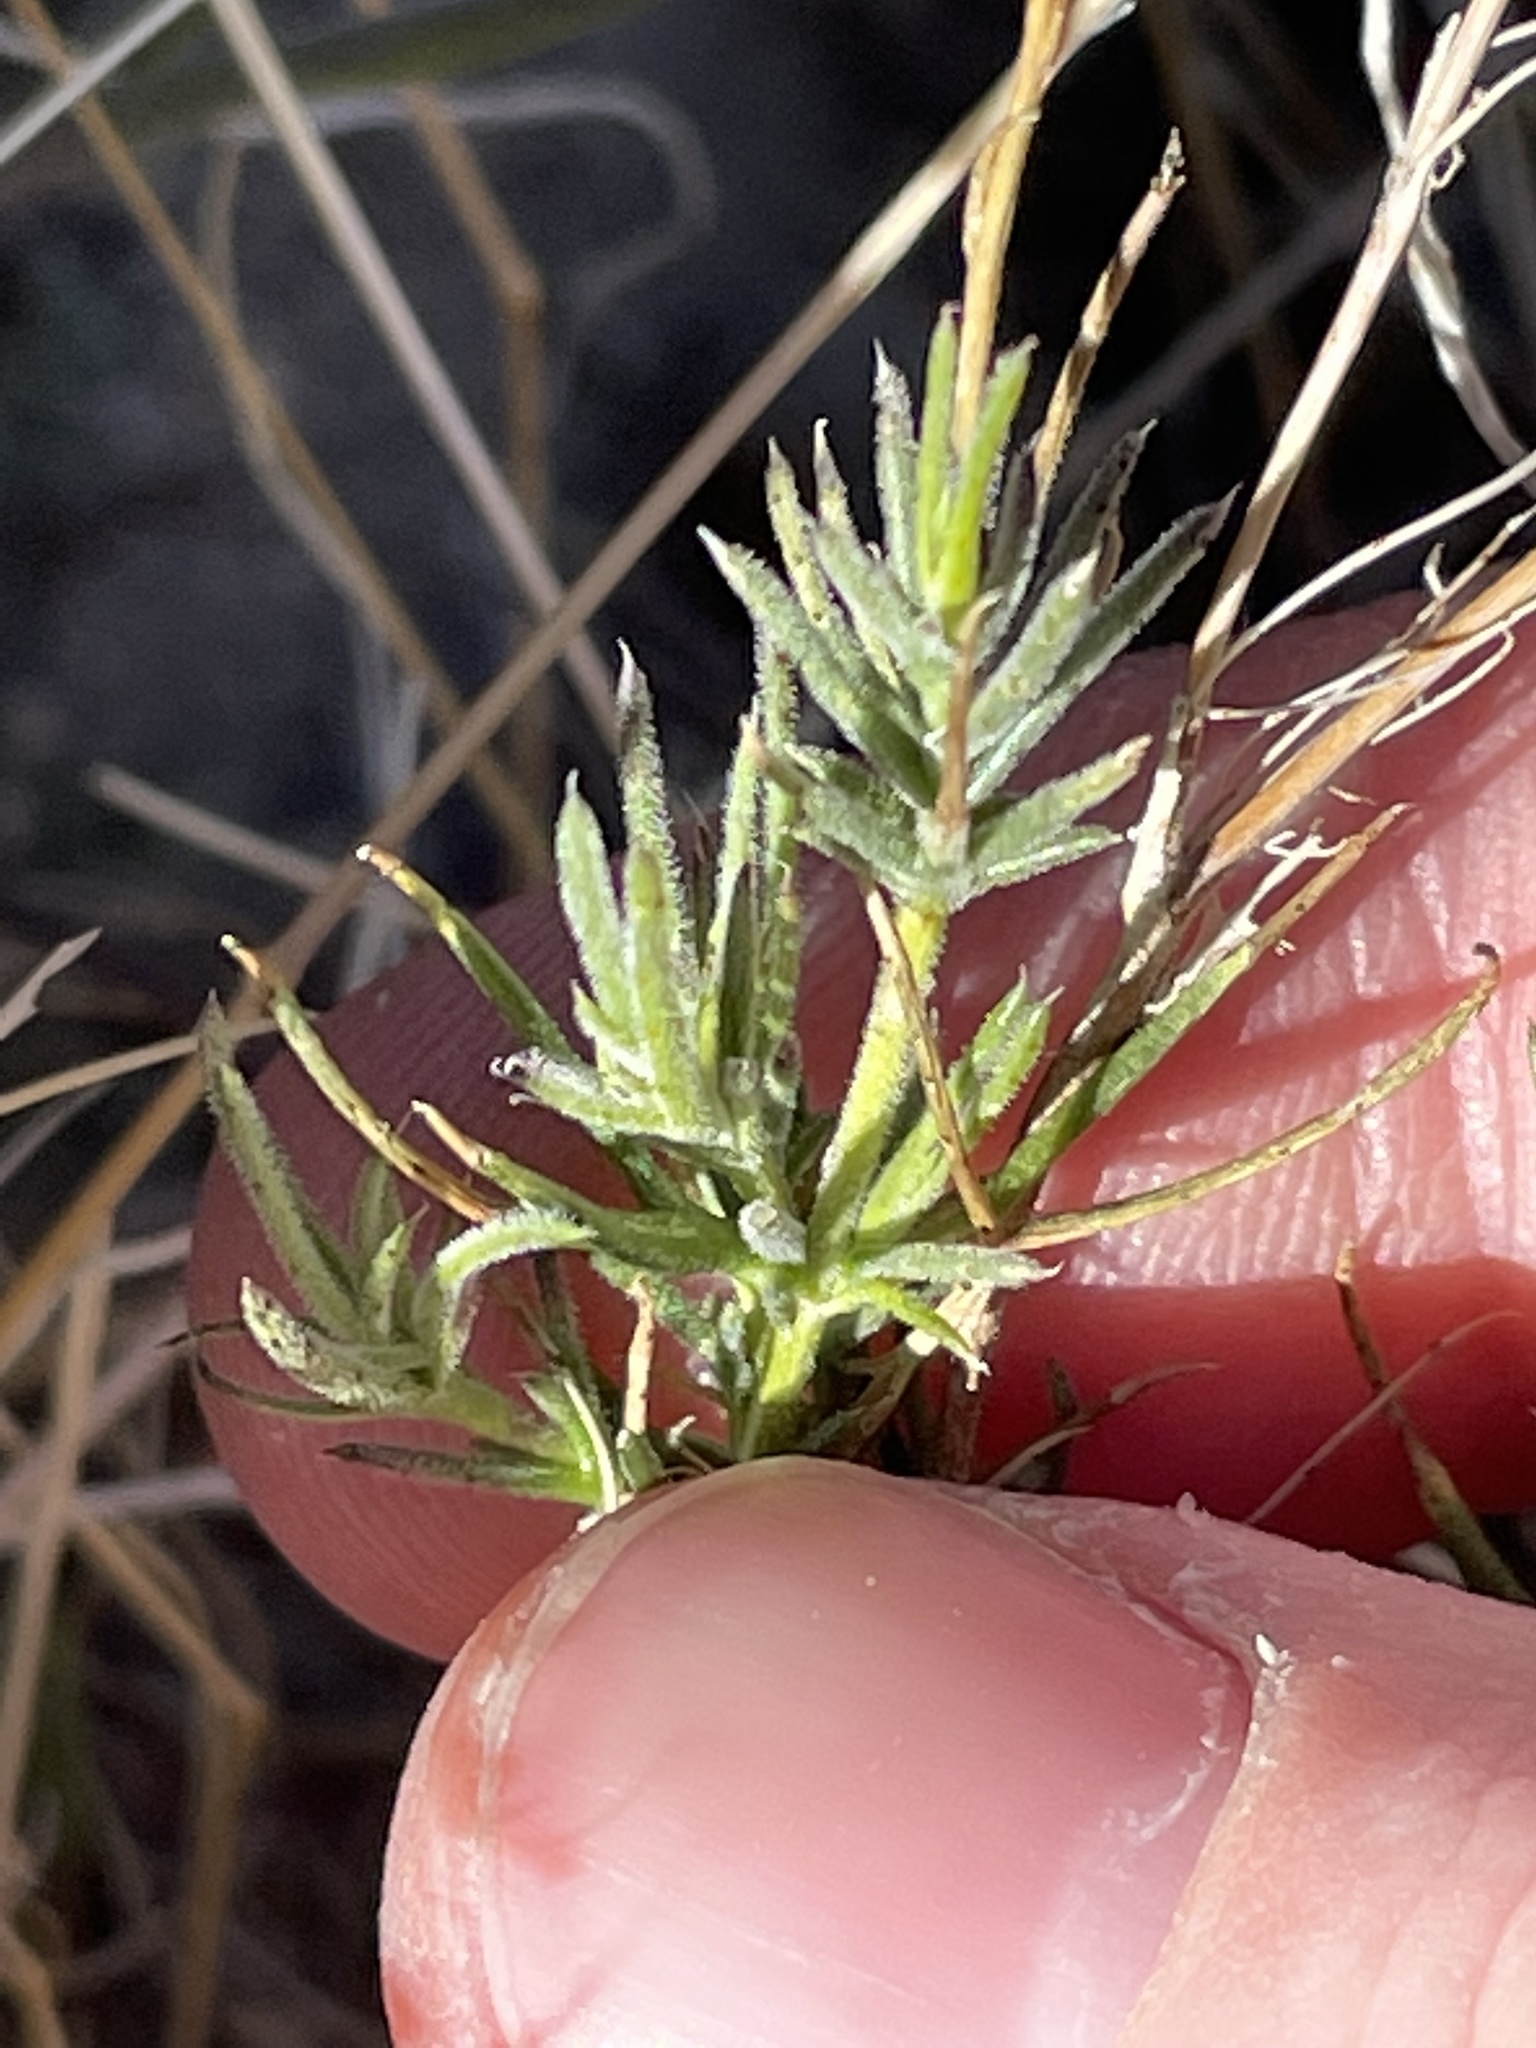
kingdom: Plantae
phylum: Tracheophyta
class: Magnoliopsida
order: Asterales
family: Asteraceae
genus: Thymophylla
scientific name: Thymophylla pentachaeta
